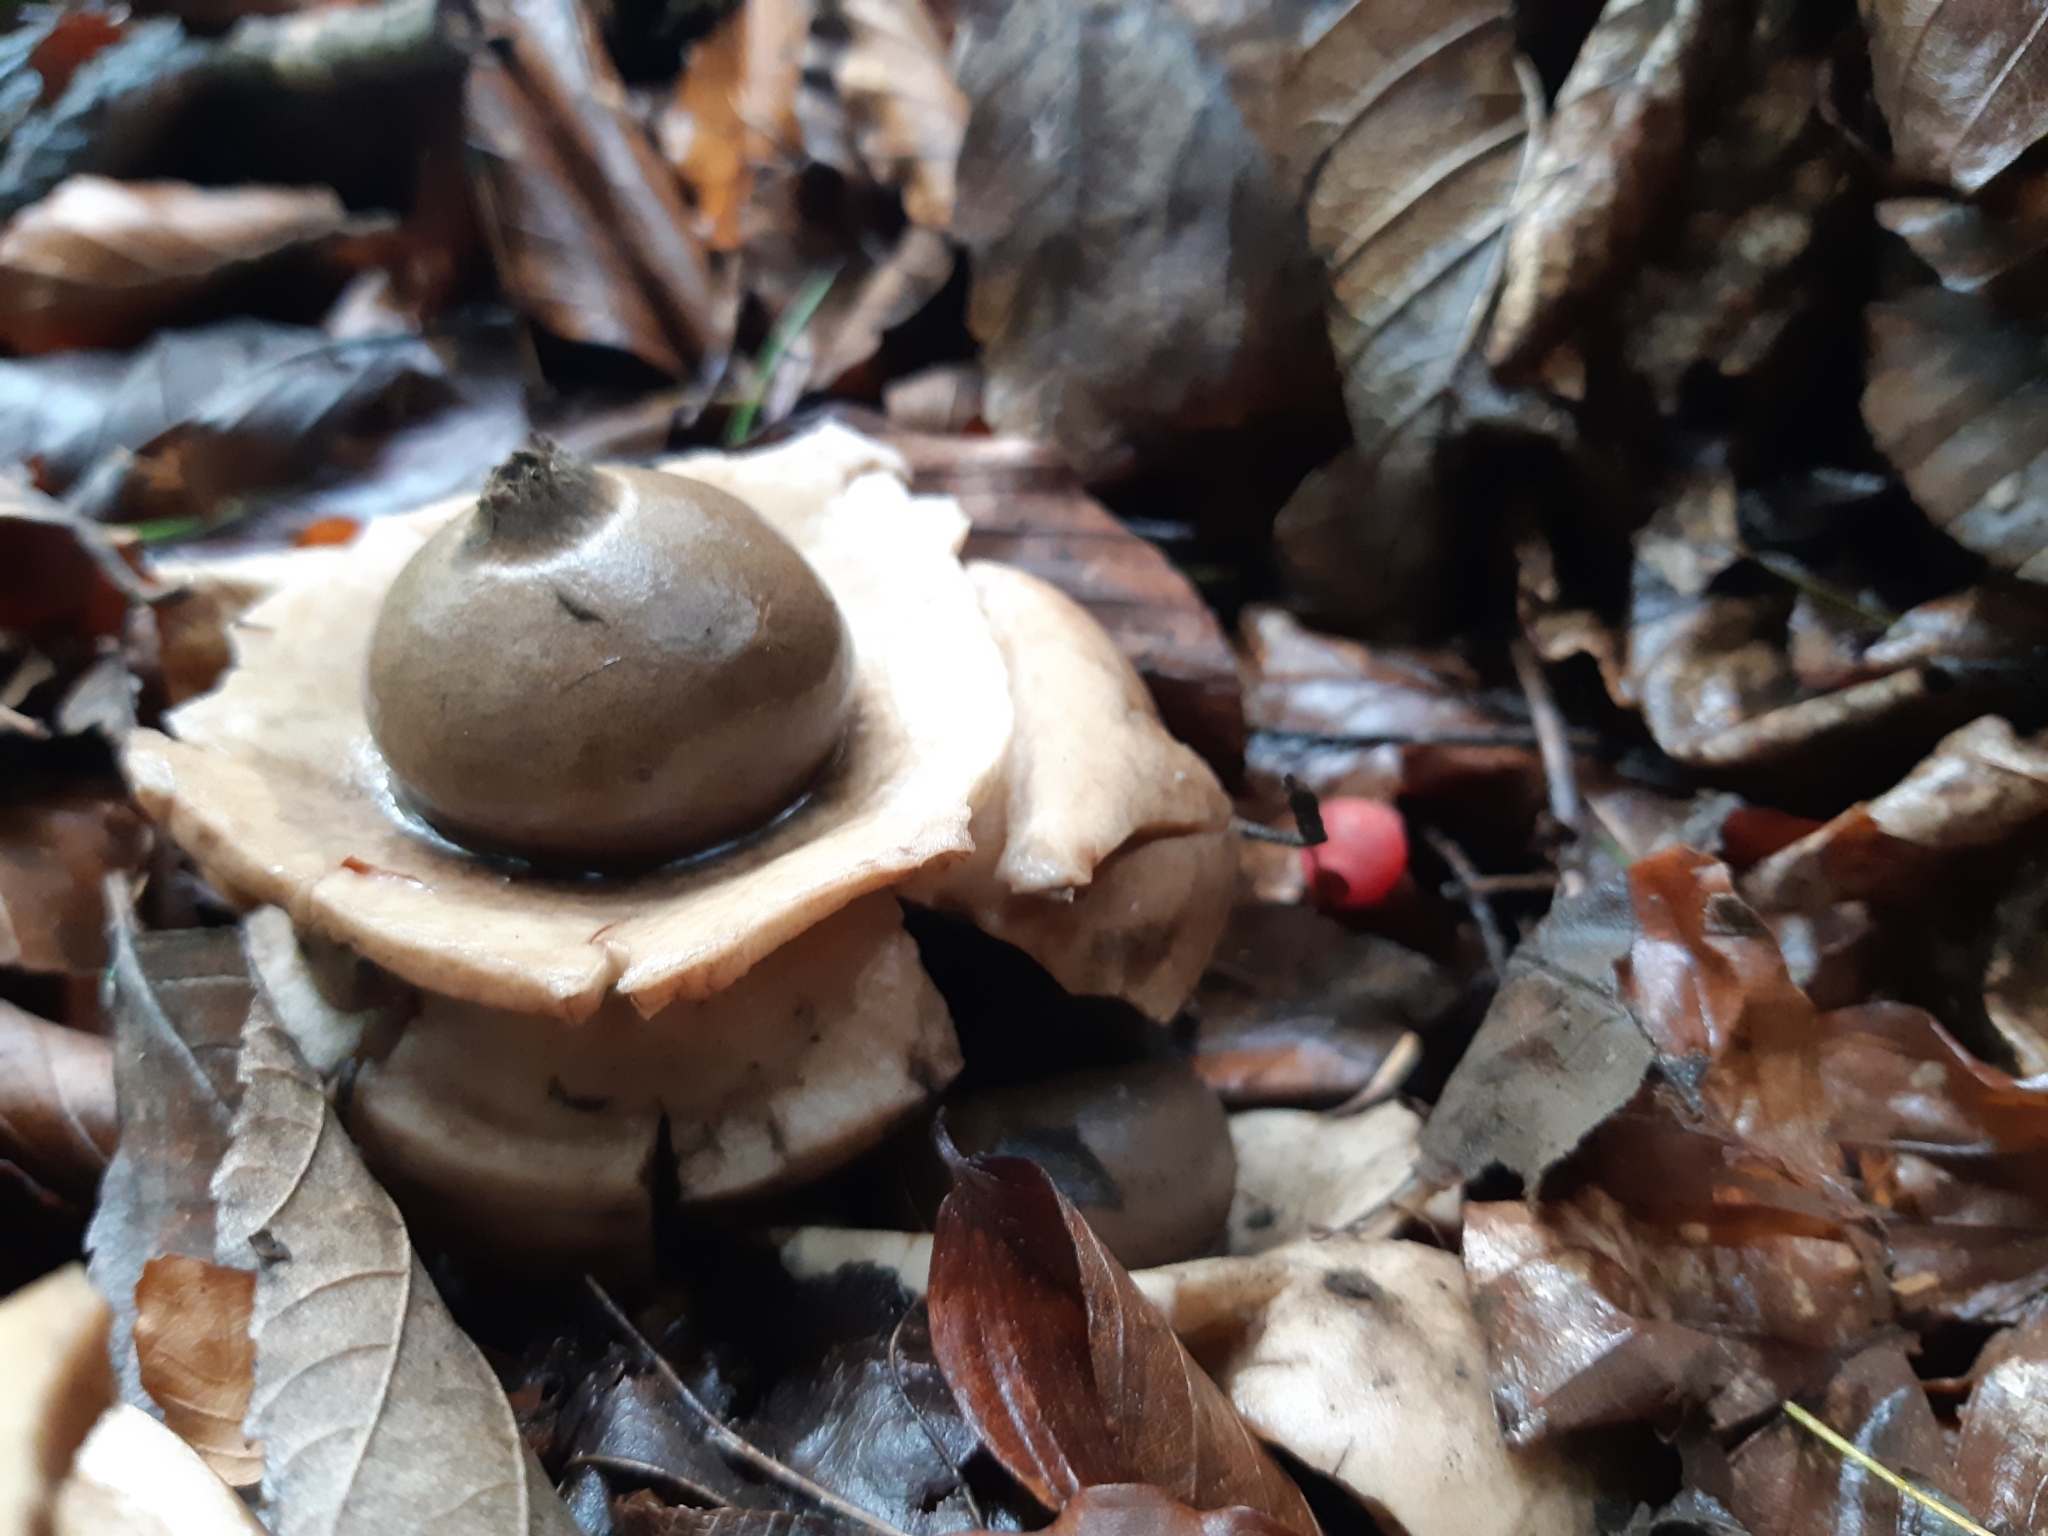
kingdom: Fungi
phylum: Basidiomycota
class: Agaricomycetes
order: Geastrales
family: Geastraceae
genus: Geastrum
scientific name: Geastrum triplex
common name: Collared earthstar
